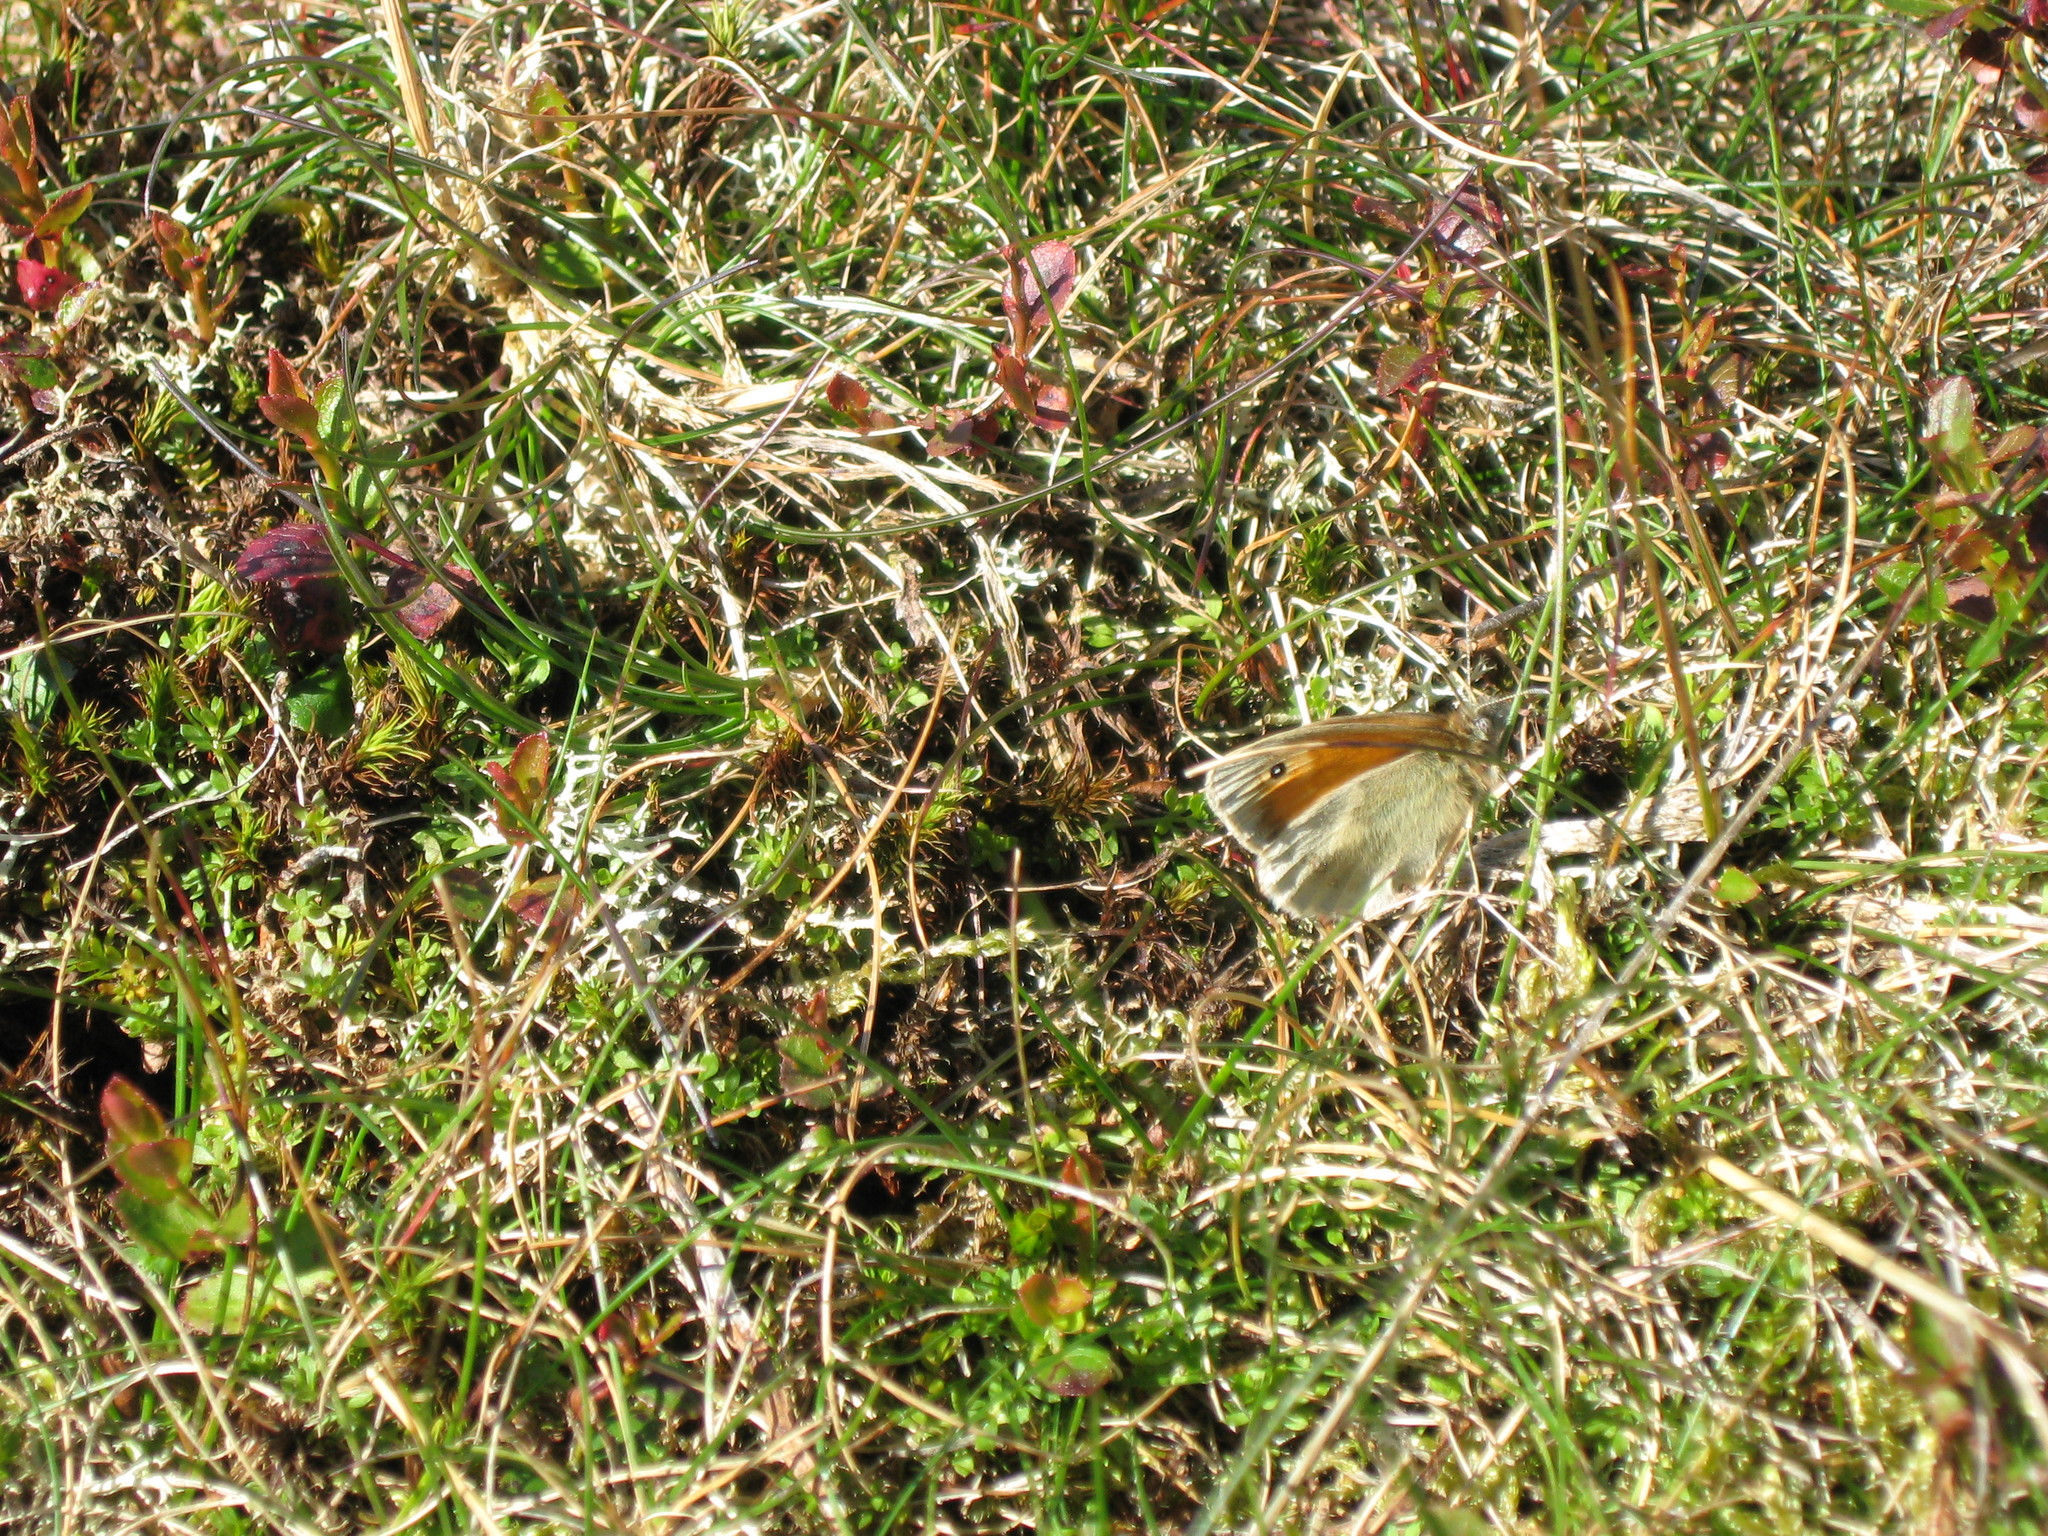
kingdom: Animalia
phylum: Arthropoda
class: Insecta
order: Lepidoptera
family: Nymphalidae
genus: Coenonympha
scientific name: Coenonympha pamphilus
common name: Small heath
